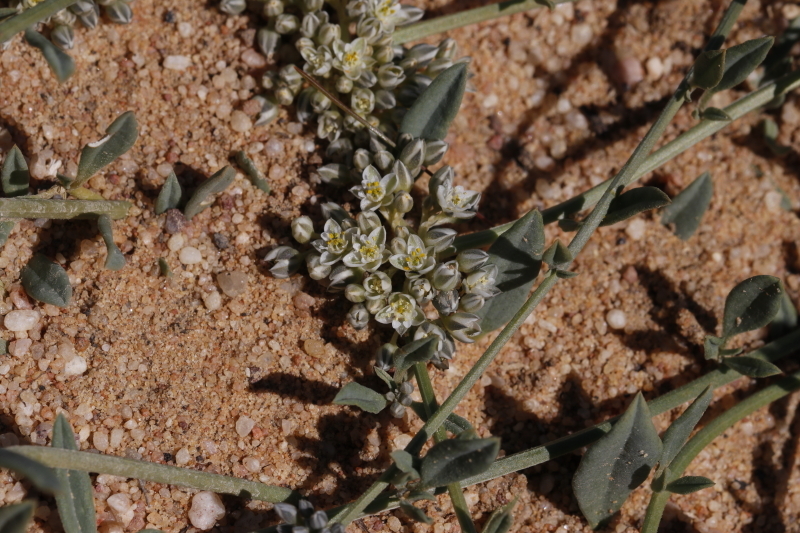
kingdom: Plantae
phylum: Tracheophyta
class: Magnoliopsida
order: Caryophyllales
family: Limeaceae
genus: Limeum
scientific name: Limeum africanum
